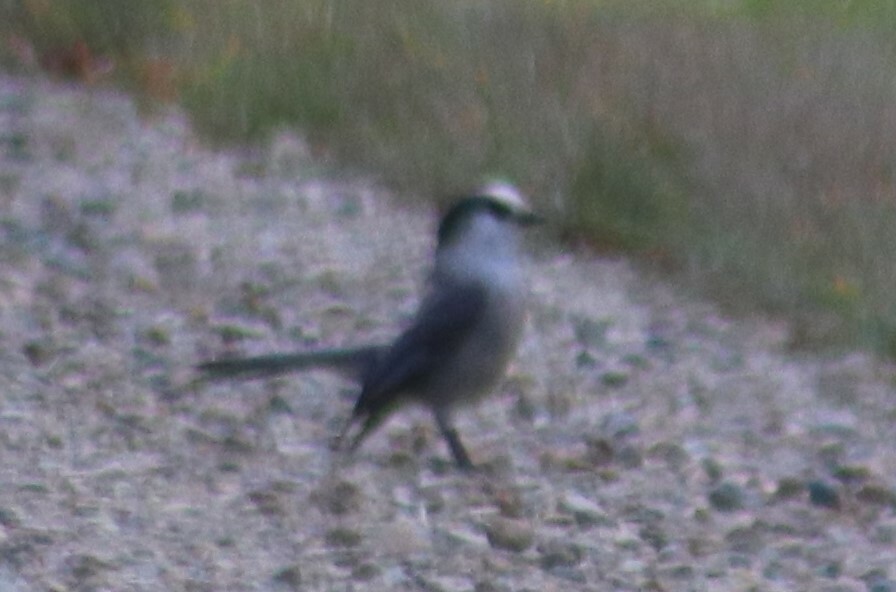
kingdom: Animalia
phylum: Chordata
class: Aves
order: Passeriformes
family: Corvidae
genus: Perisoreus
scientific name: Perisoreus canadensis
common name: Gray jay
